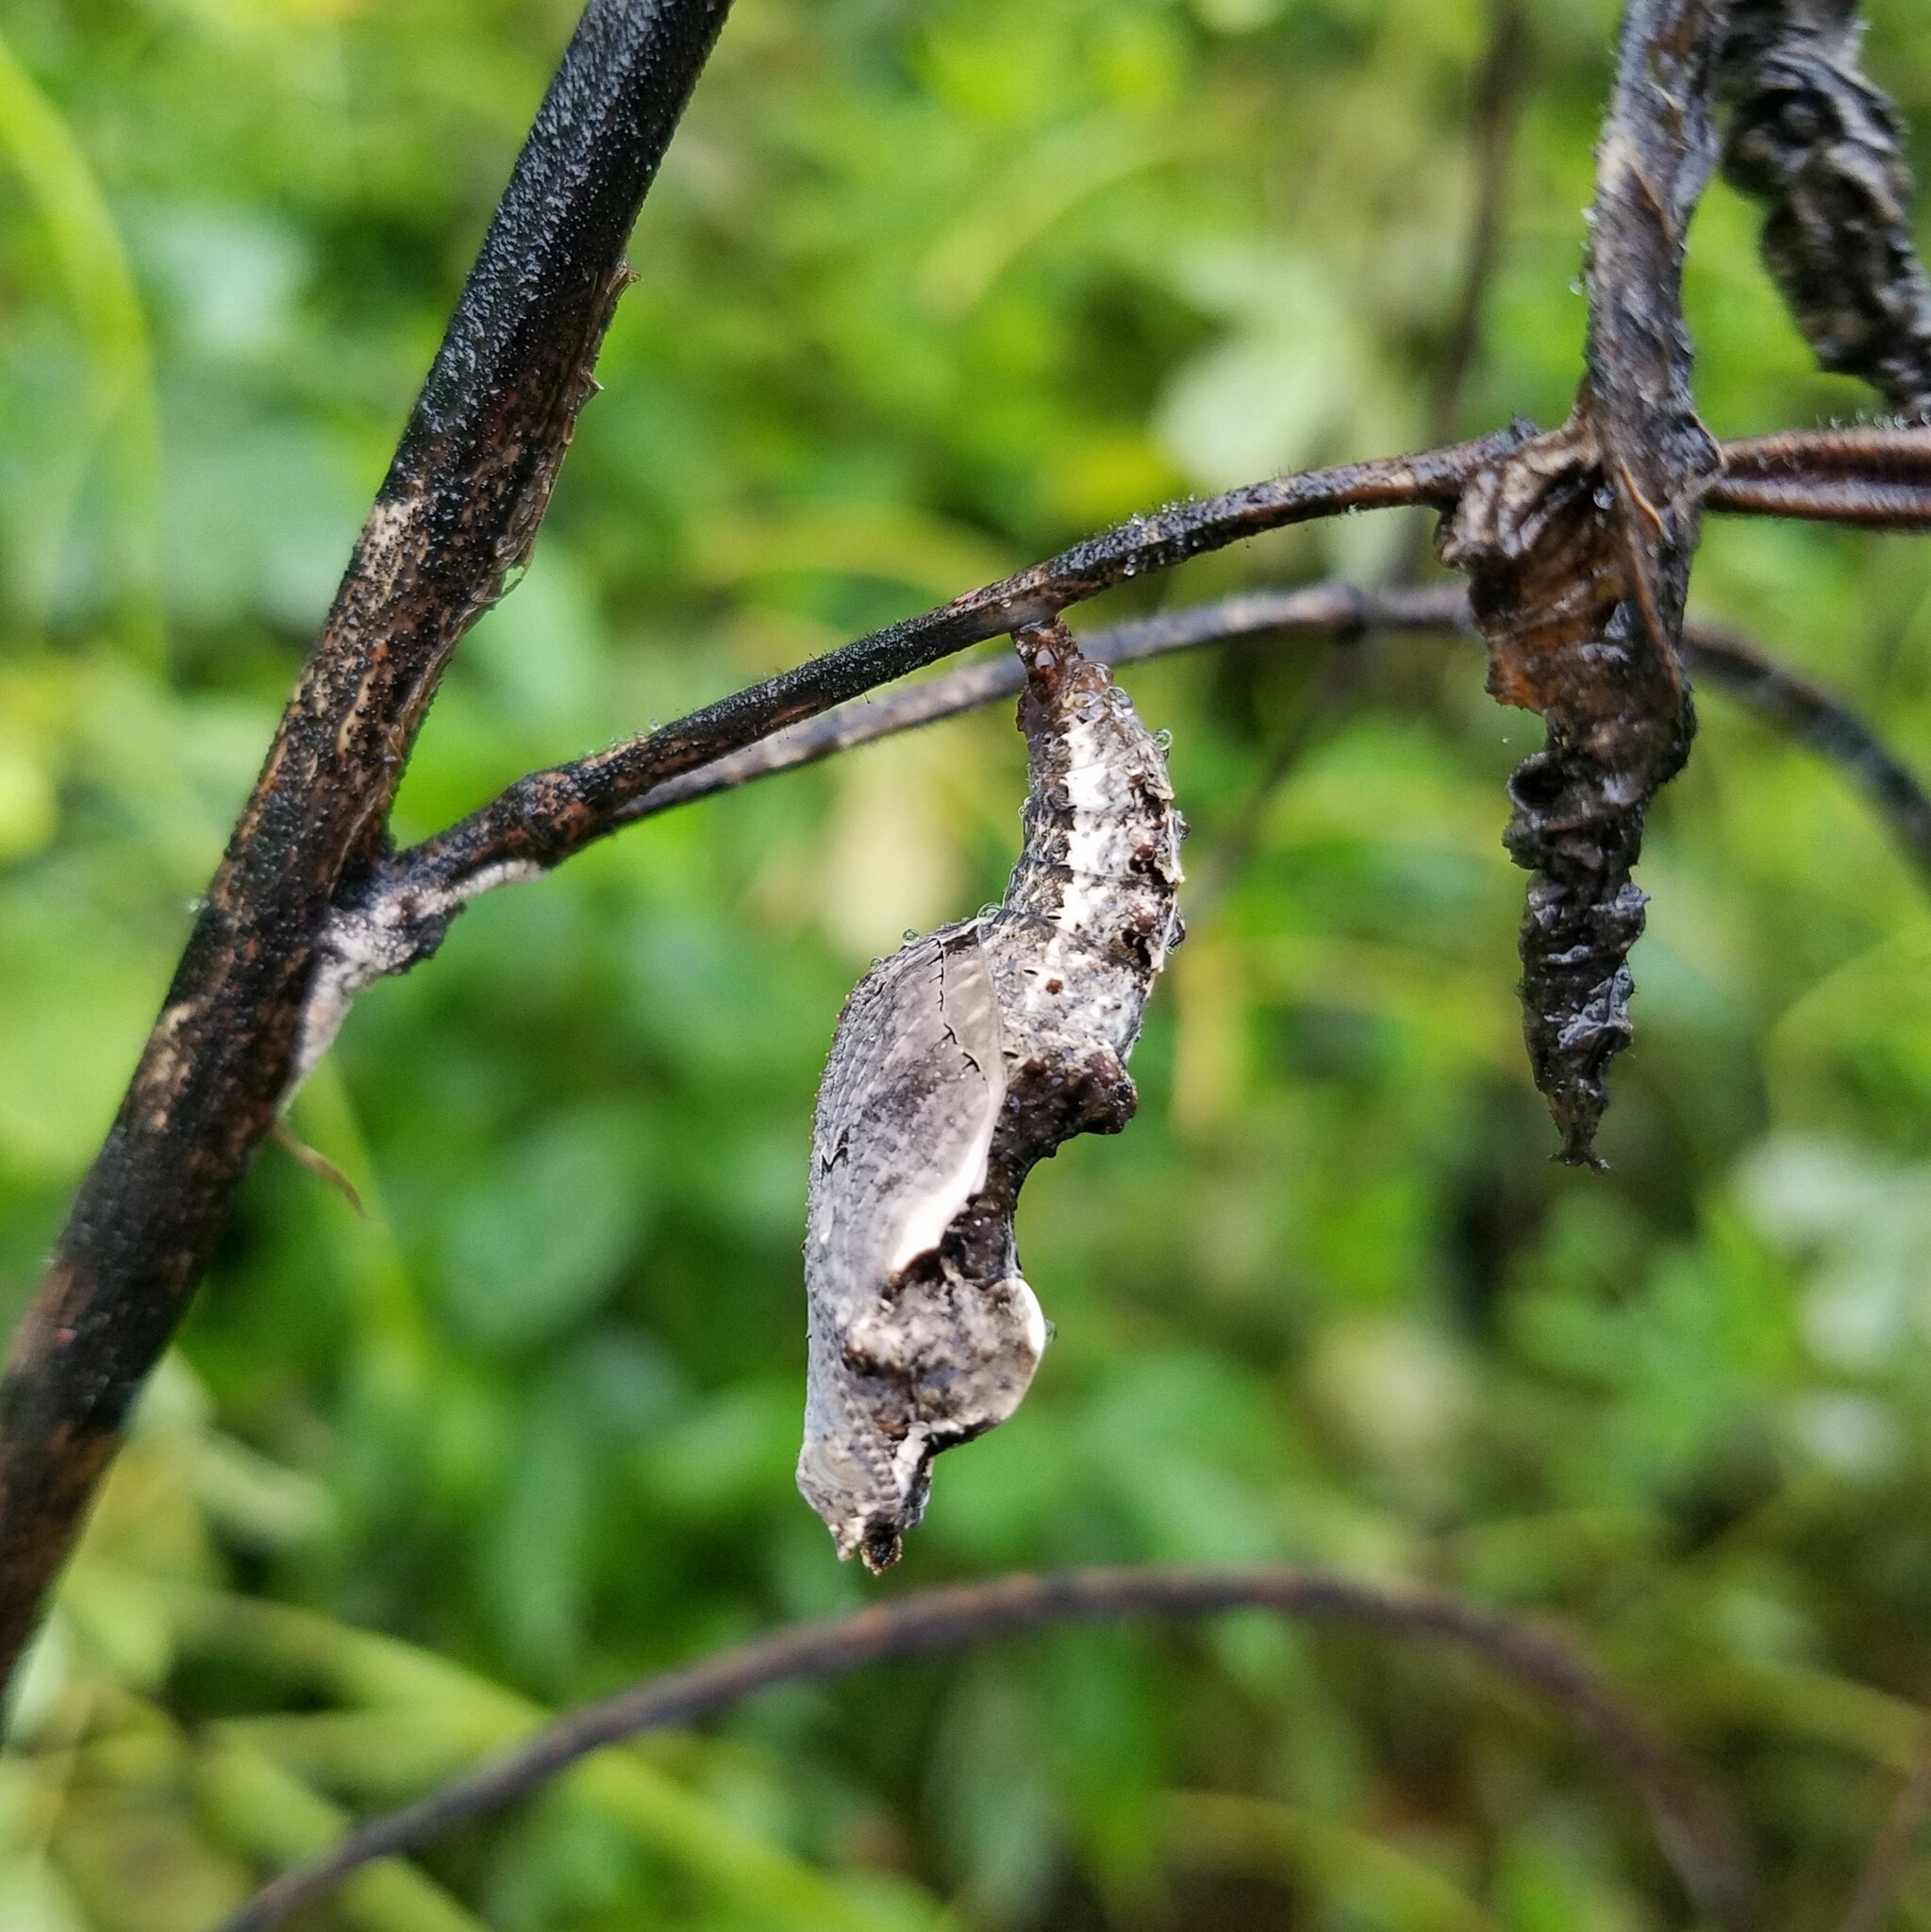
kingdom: Animalia
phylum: Arthropoda
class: Insecta
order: Lepidoptera
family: Nymphalidae
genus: Dione
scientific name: Dione vanillae
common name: Gulf fritillary
